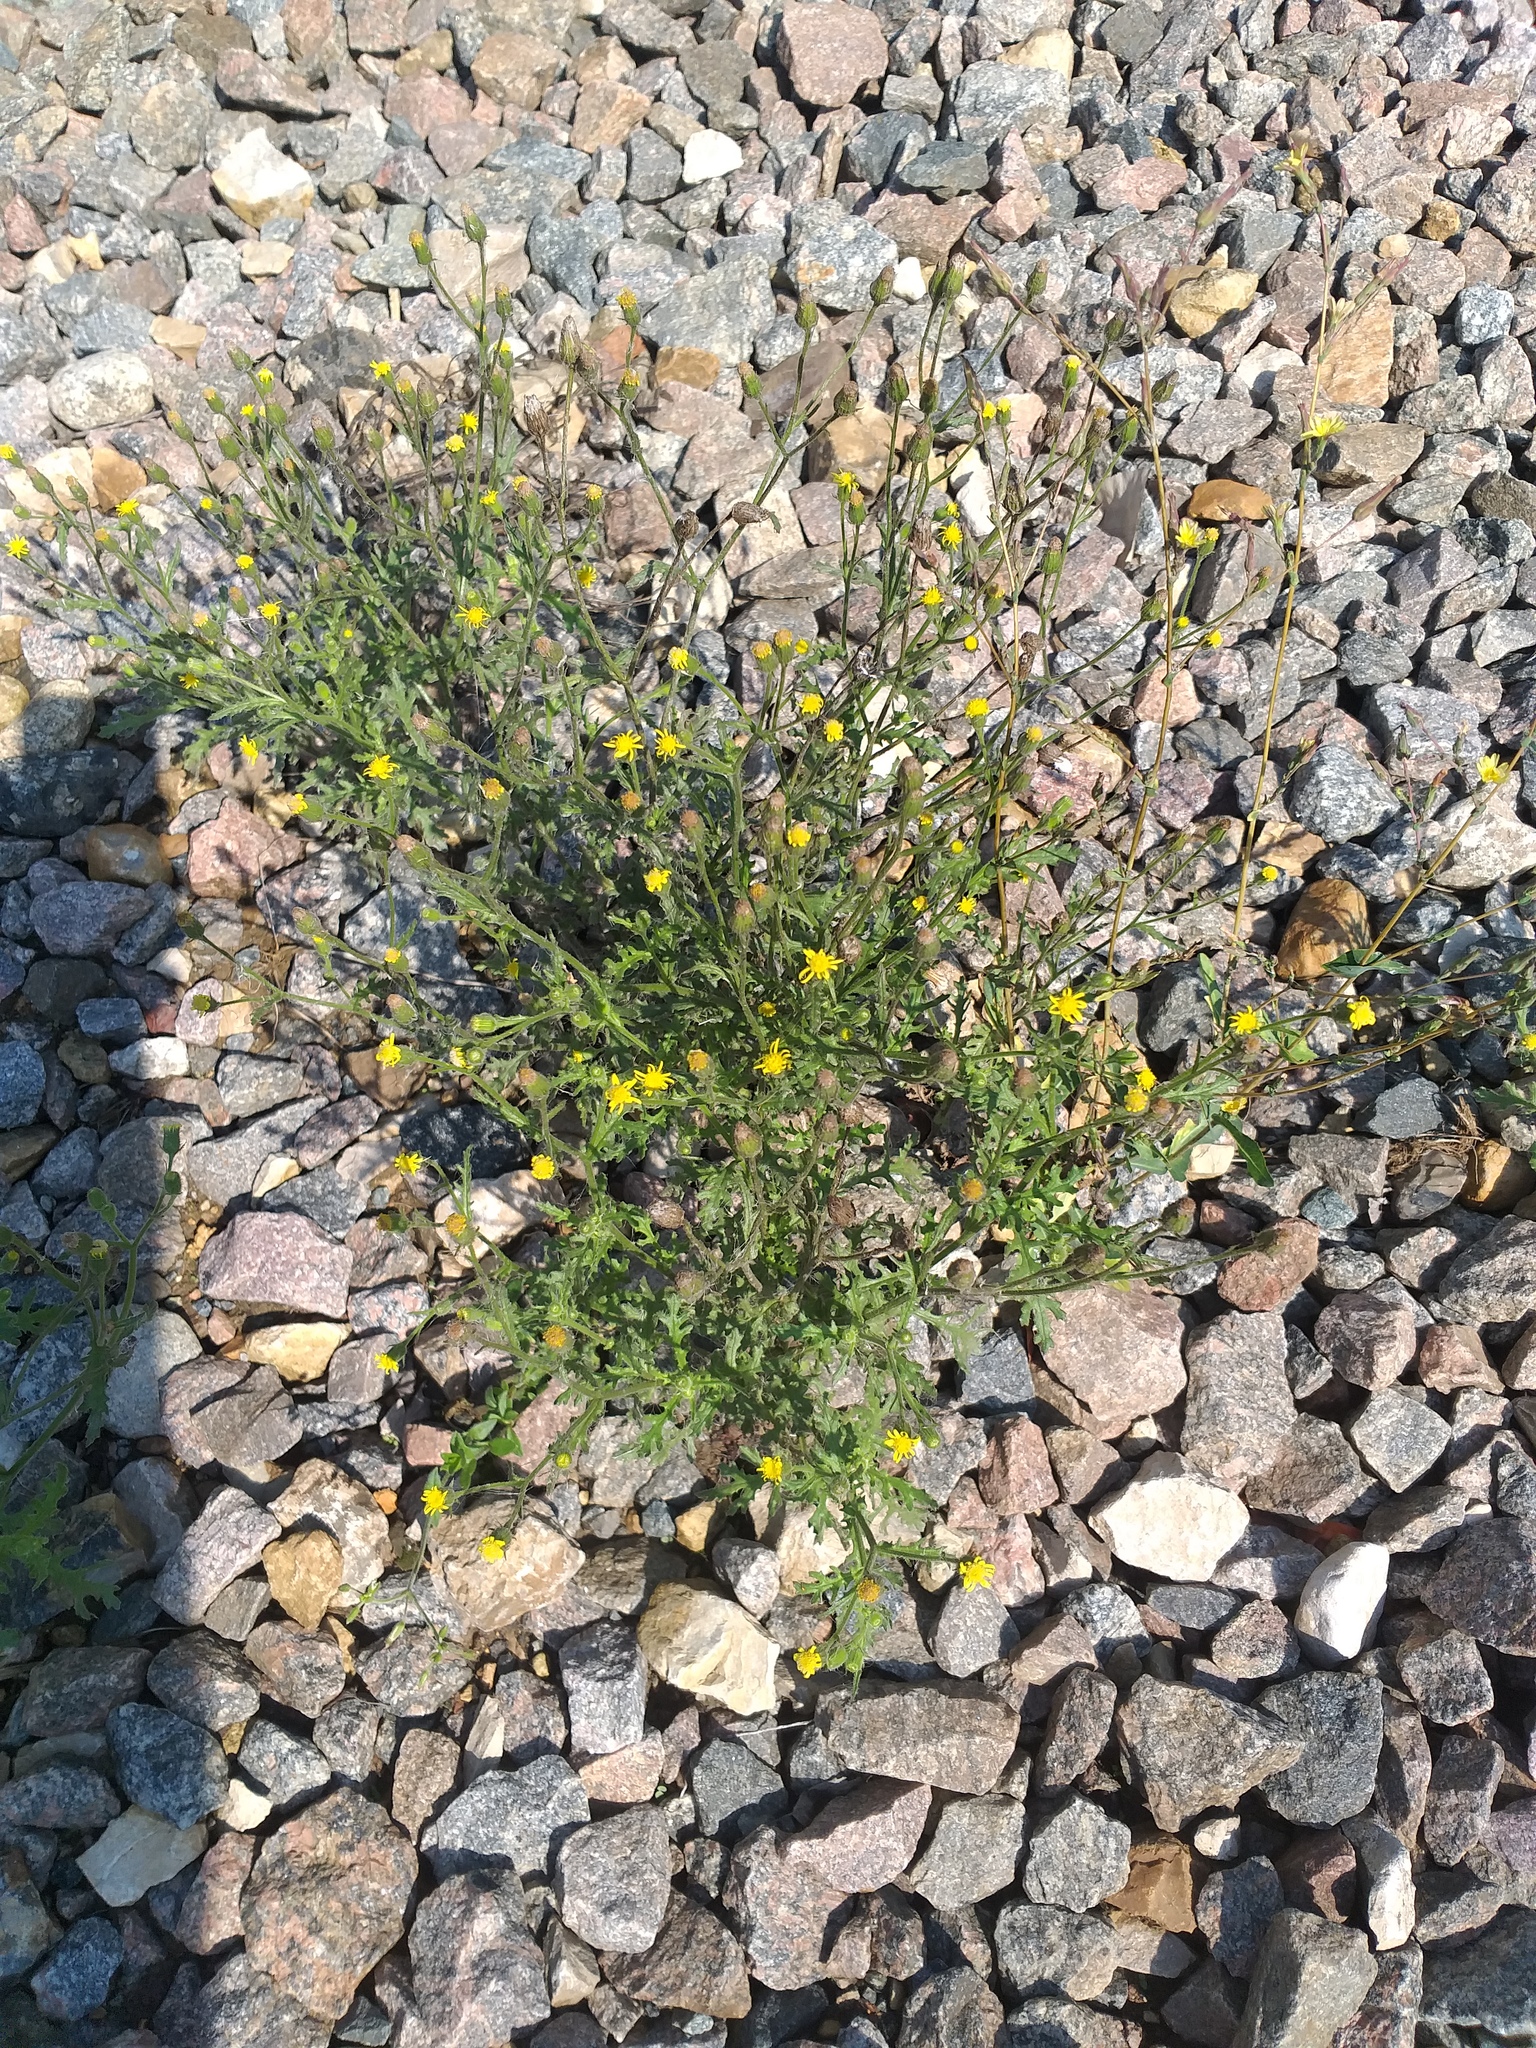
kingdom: Plantae
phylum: Tracheophyta
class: Magnoliopsida
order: Asterales
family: Asteraceae
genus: Senecio
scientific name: Senecio viscosus
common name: Sticky groundsel
